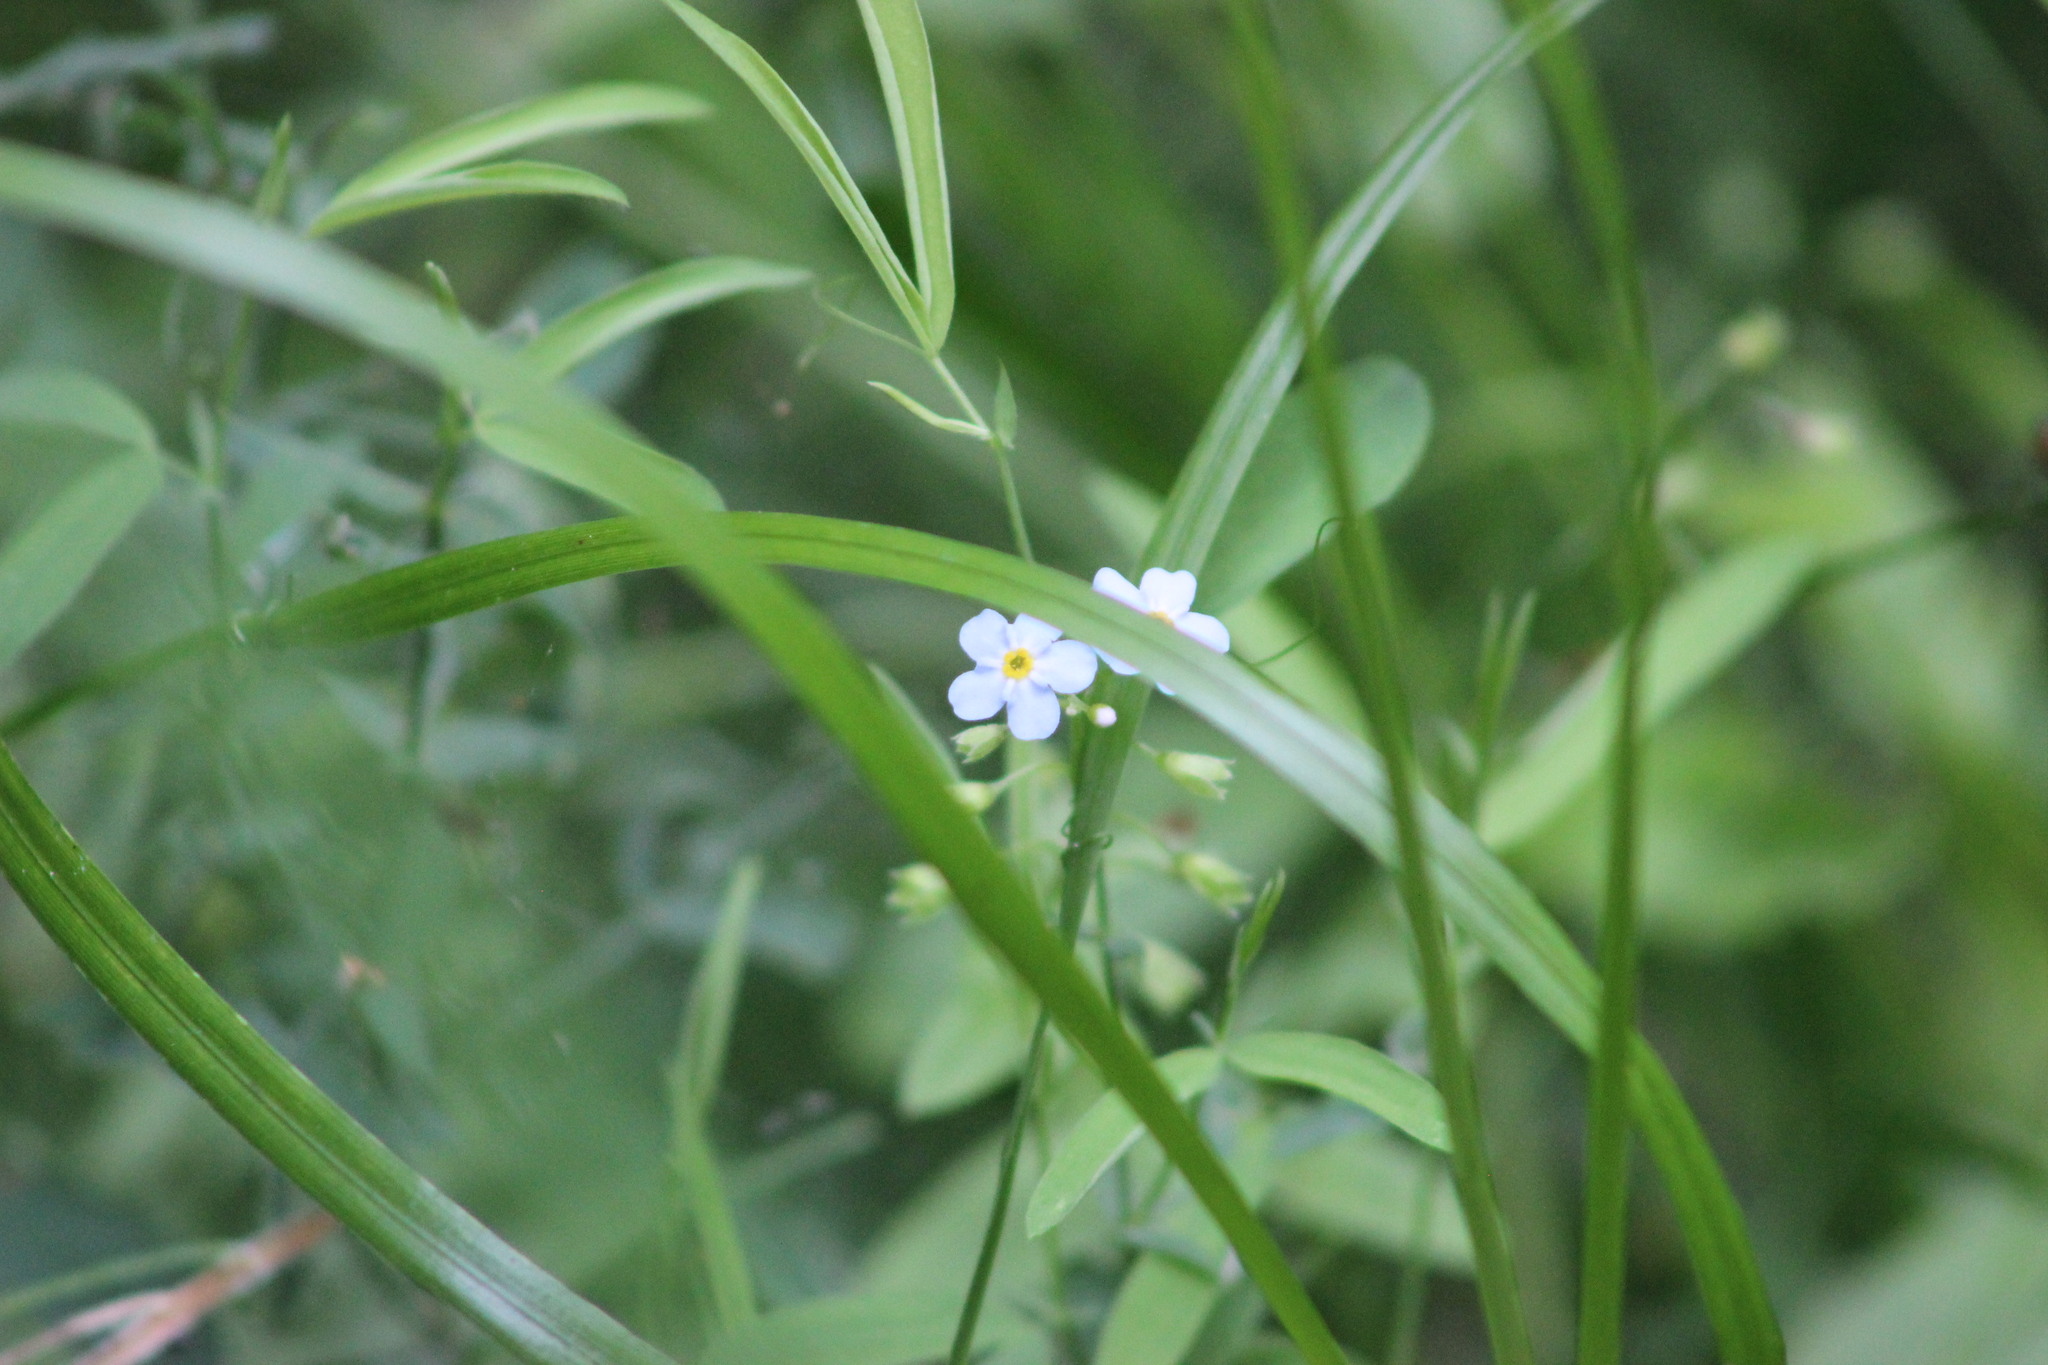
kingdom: Plantae
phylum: Tracheophyta
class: Magnoliopsida
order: Boraginales
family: Boraginaceae
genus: Myosotis
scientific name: Myosotis scorpioides
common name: Water forget-me-not
